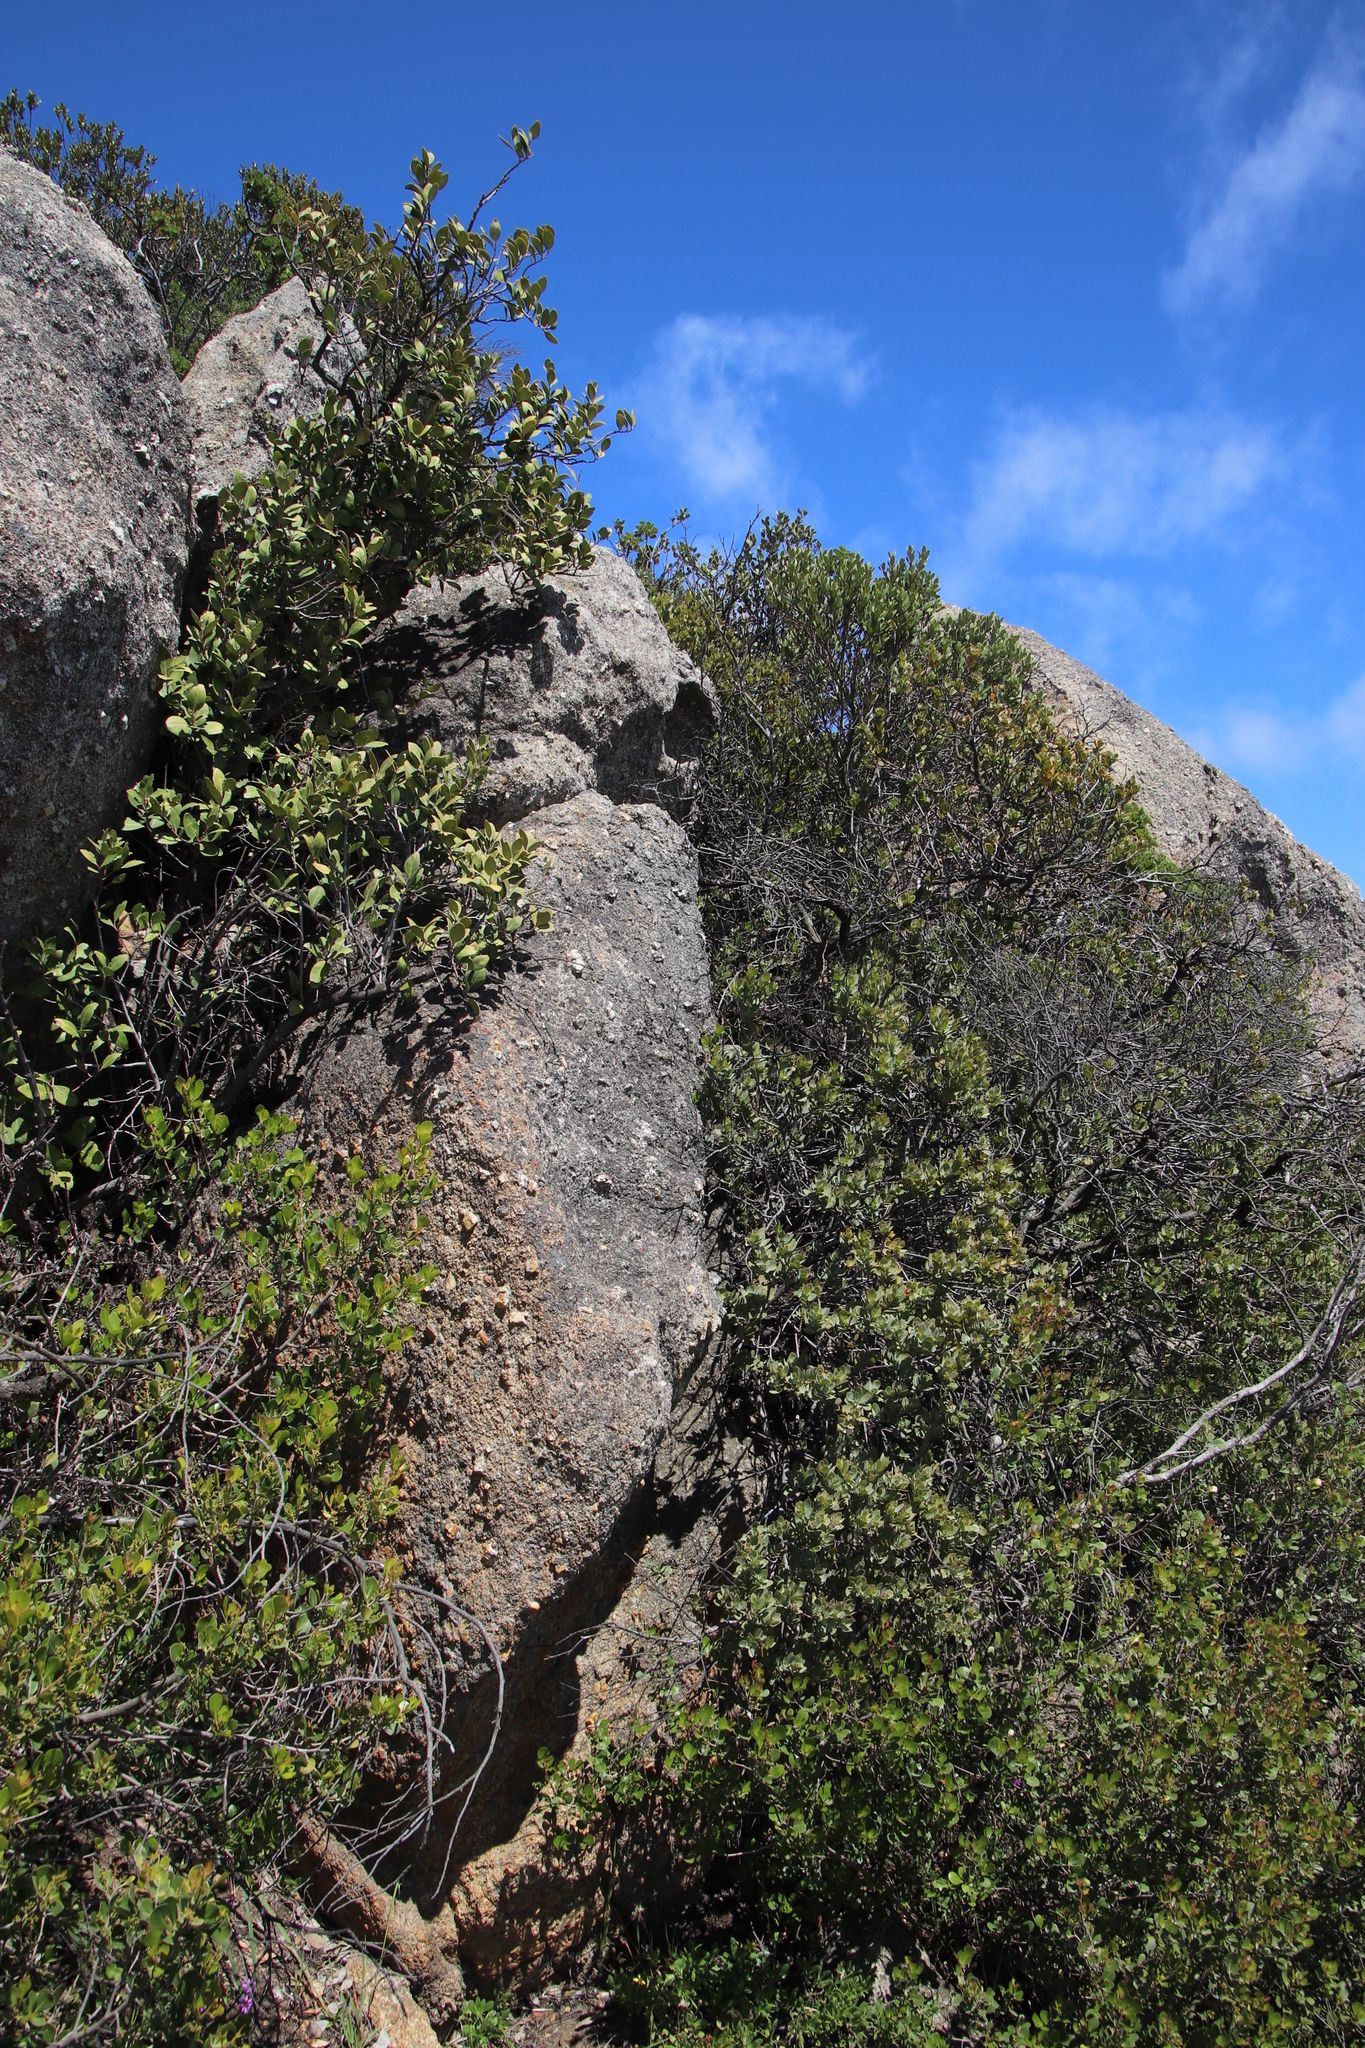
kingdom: Plantae
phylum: Tracheophyta
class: Magnoliopsida
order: Ericales
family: Ebenaceae
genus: Euclea
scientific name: Euclea racemosa
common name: Dune guarri
